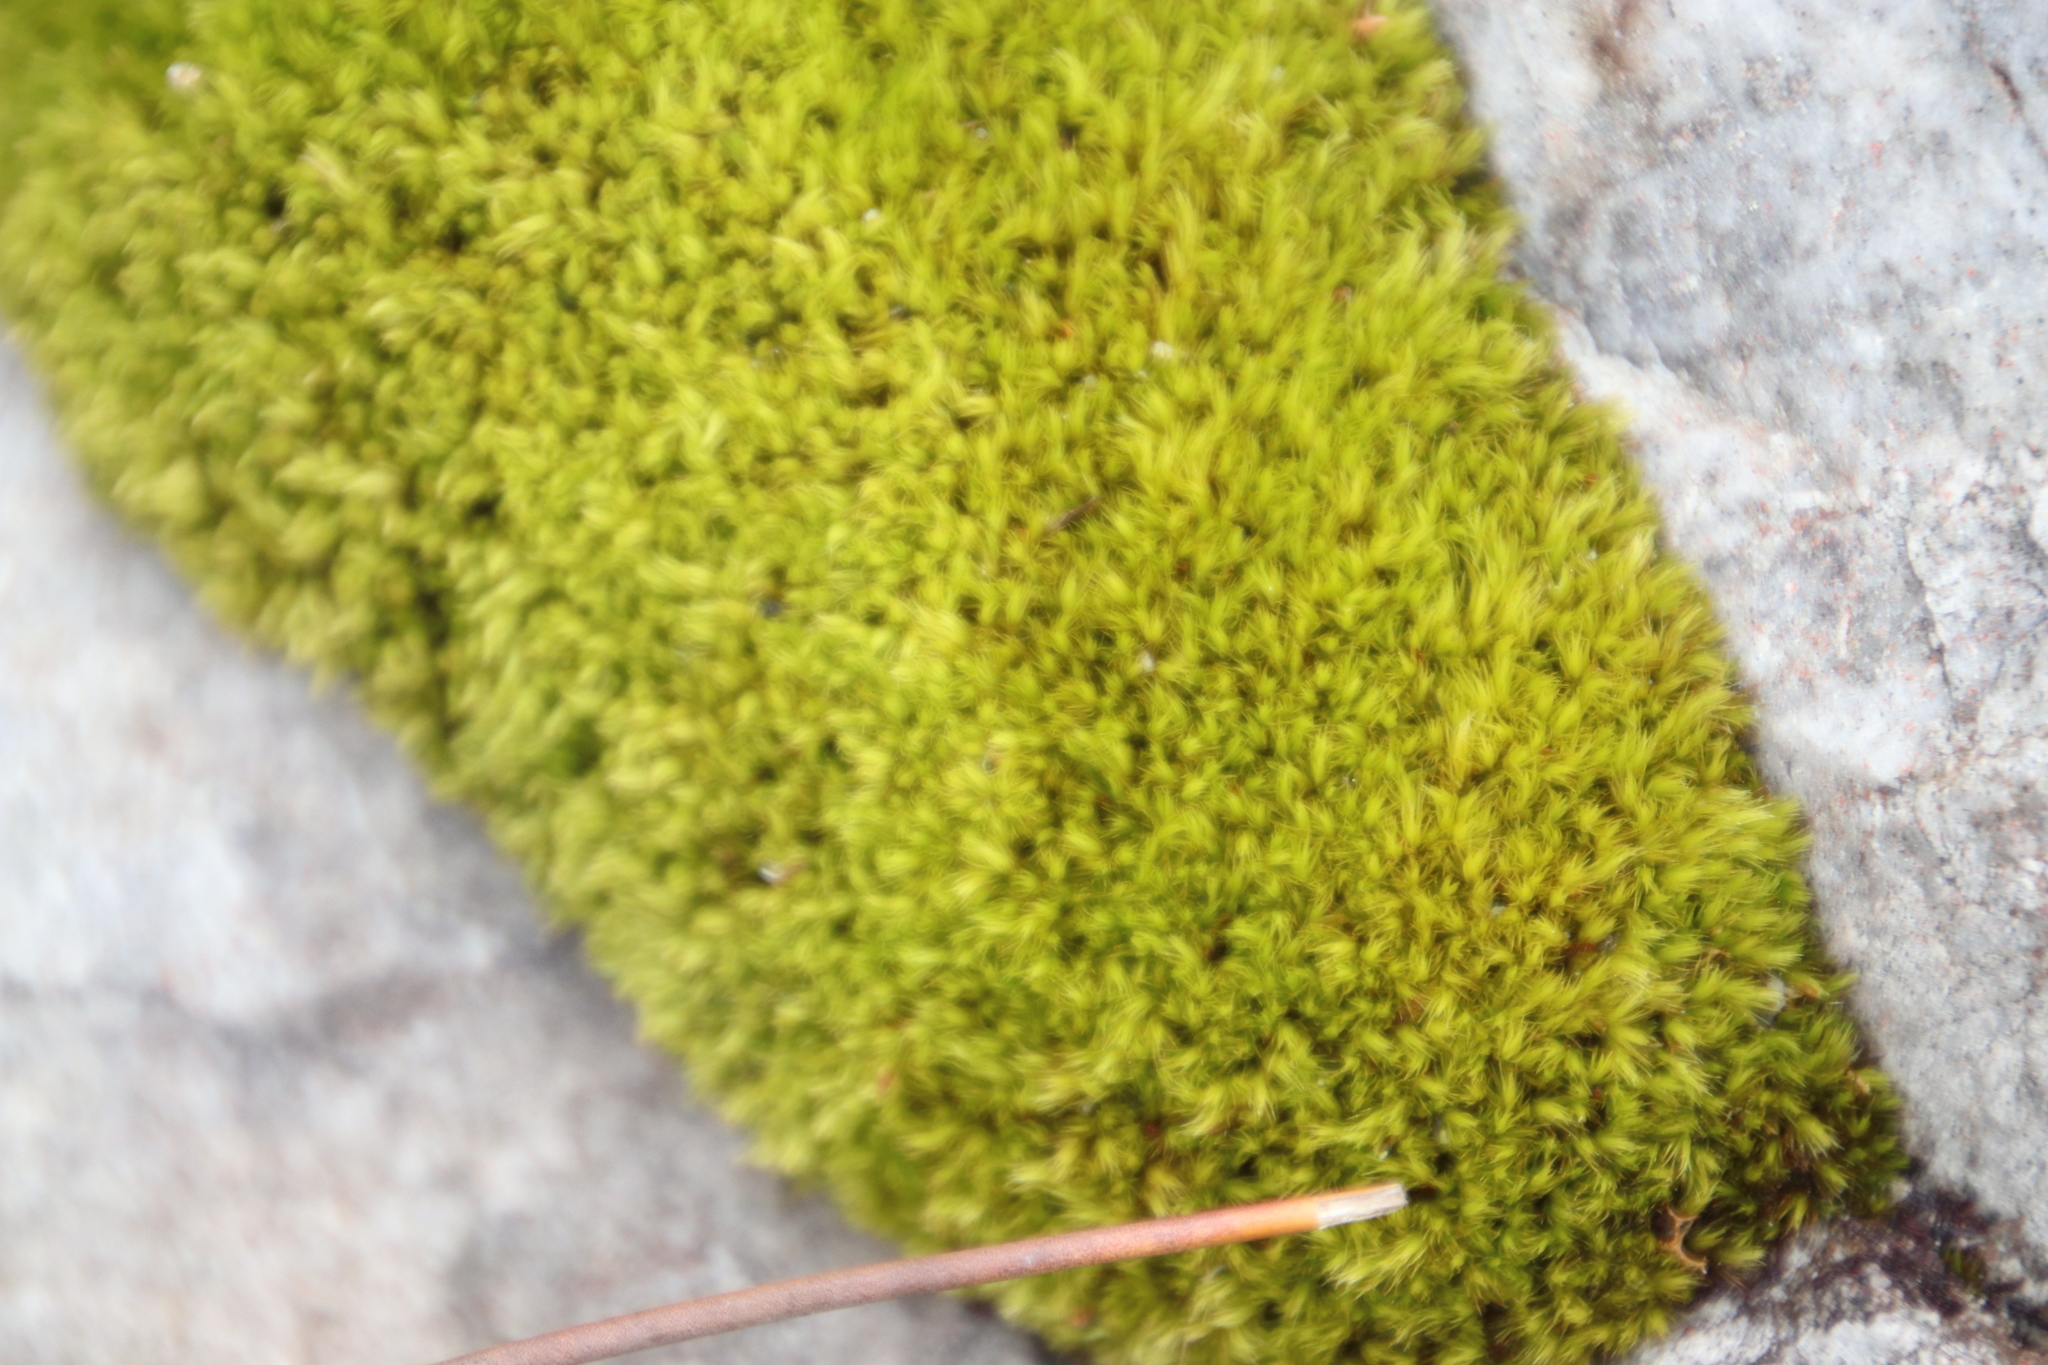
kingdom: Plantae
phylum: Bryophyta
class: Bryopsida
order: Dicranales
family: Dicranaceae
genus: Leucoloma
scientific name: Leucoloma sprengelianum
